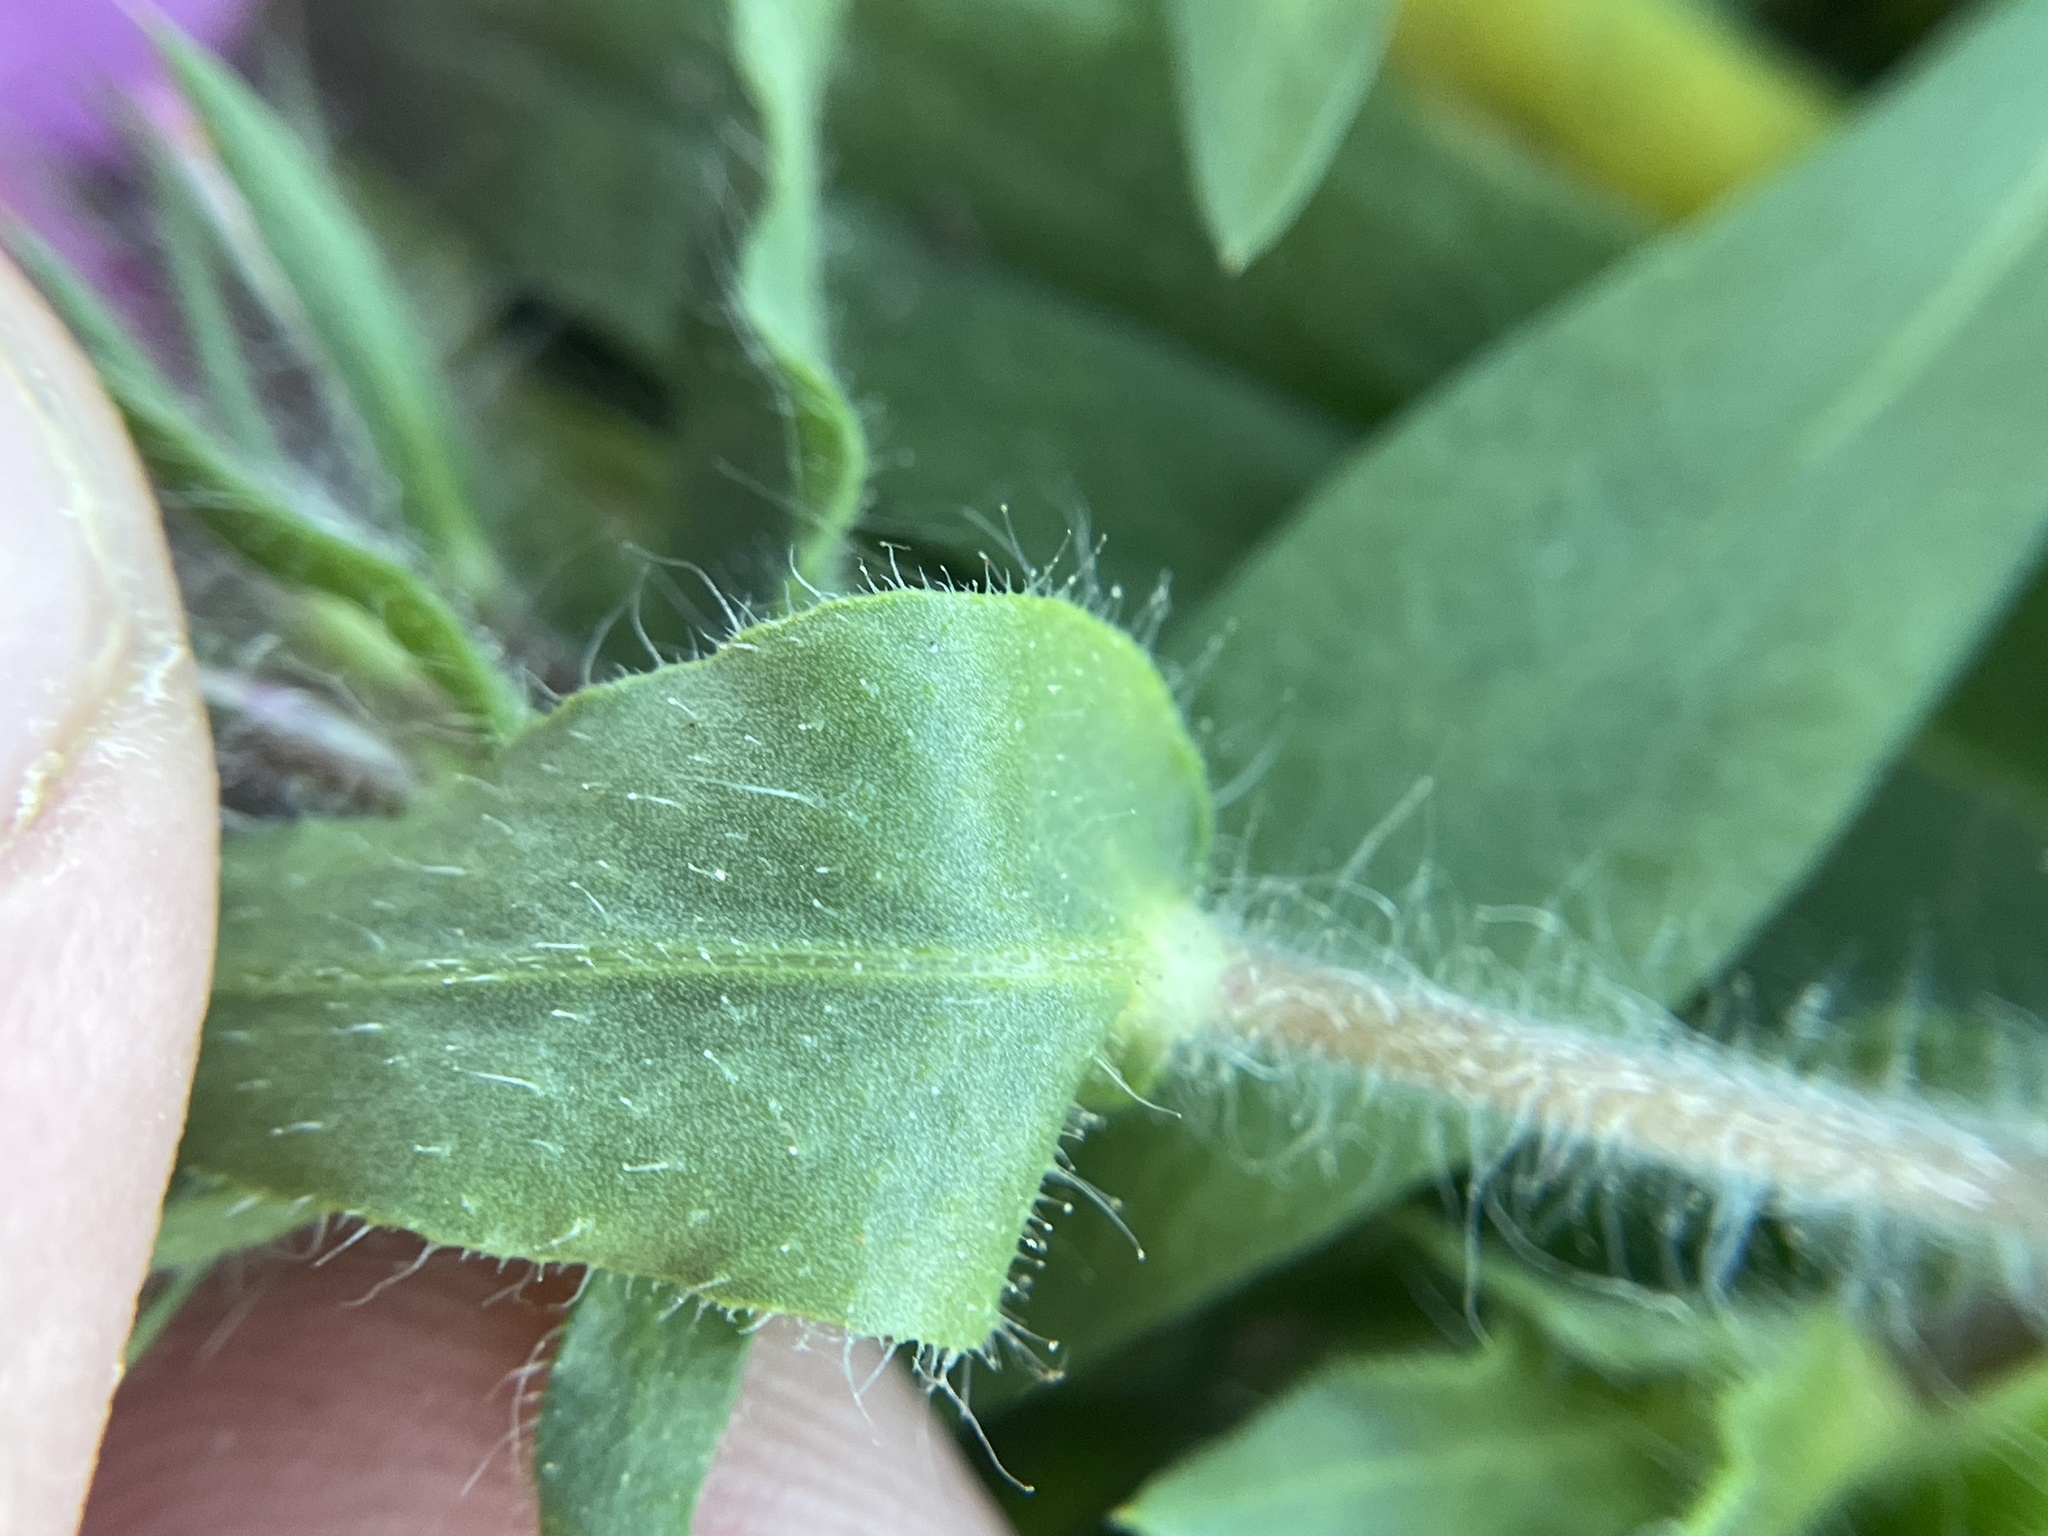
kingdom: Plantae
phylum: Tracheophyta
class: Magnoliopsida
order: Ericales
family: Polemoniaceae
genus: Phlox
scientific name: Phlox drummondii
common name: Drummond's phlox
